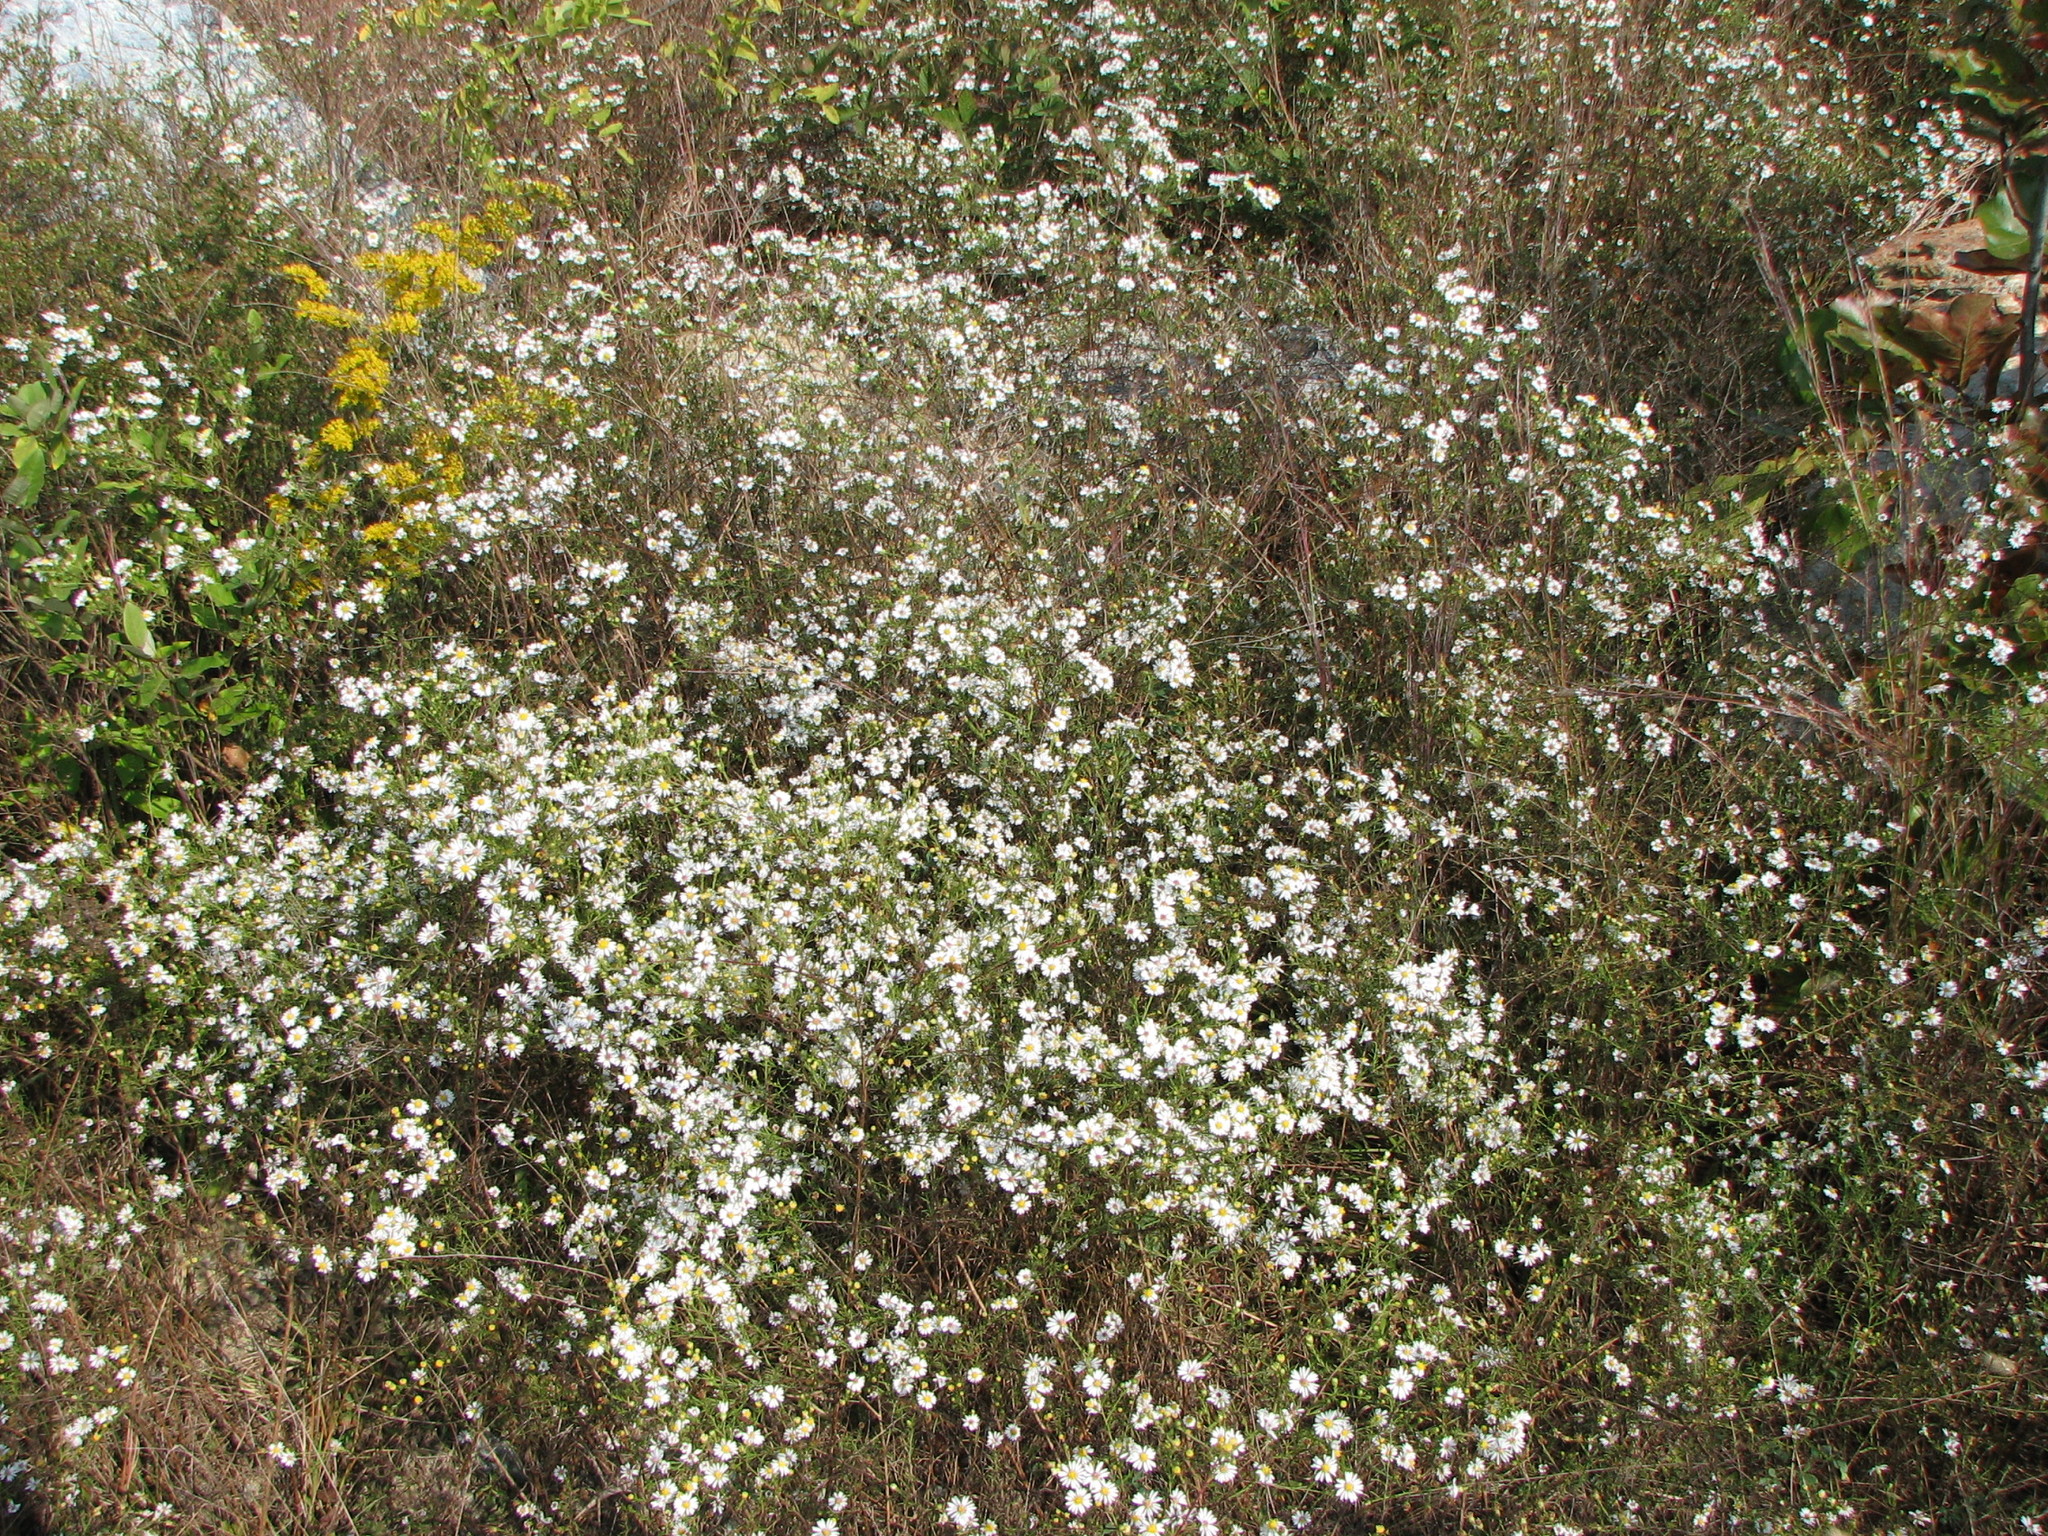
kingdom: Plantae
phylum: Tracheophyta
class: Magnoliopsida
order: Asterales
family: Asteraceae
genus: Symphyotrichum
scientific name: Symphyotrichum depauperatum
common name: Serpentine aster
